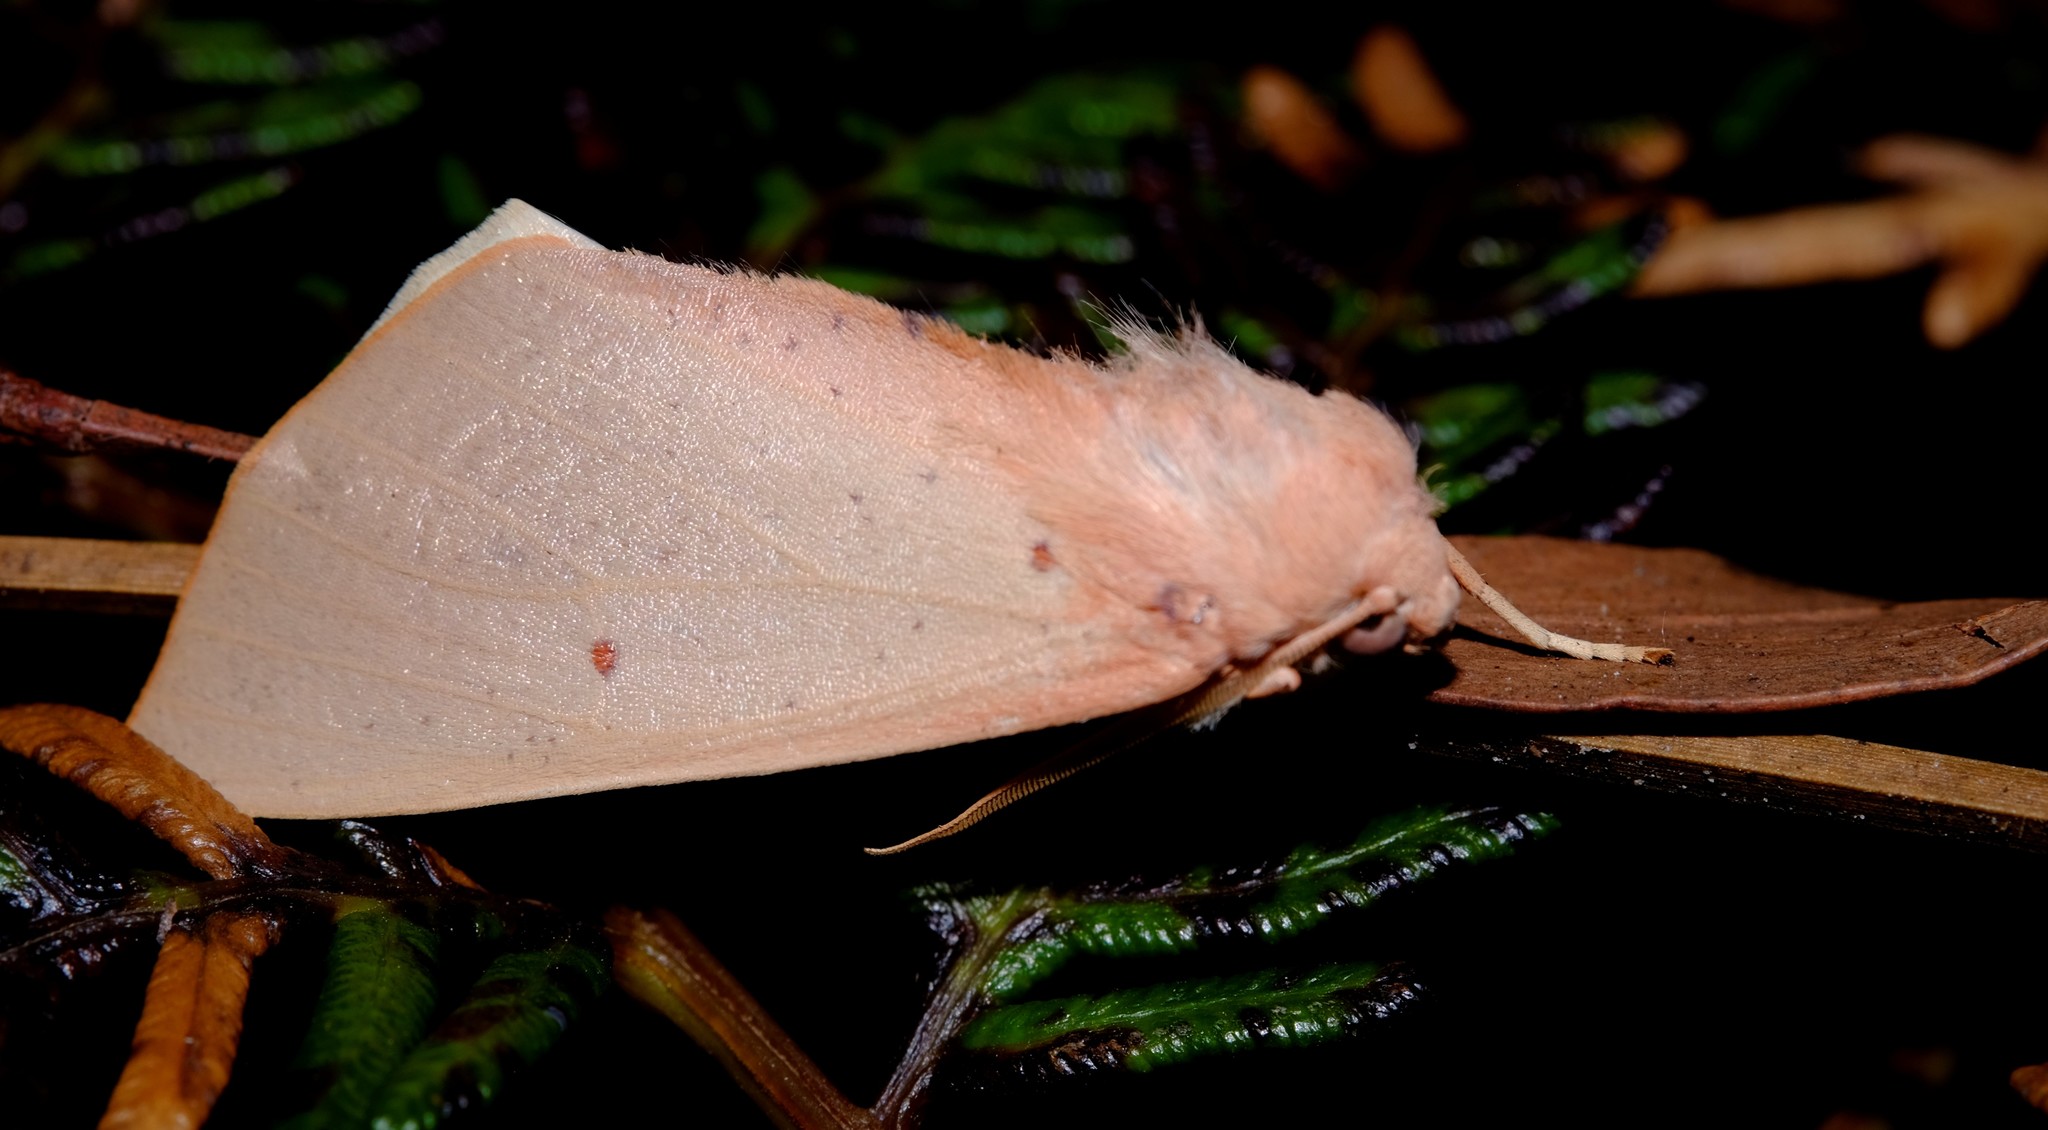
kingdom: Animalia
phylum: Arthropoda
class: Insecta
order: Lepidoptera
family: Geometridae
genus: Plesanemma
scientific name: Plesanemma fucata
